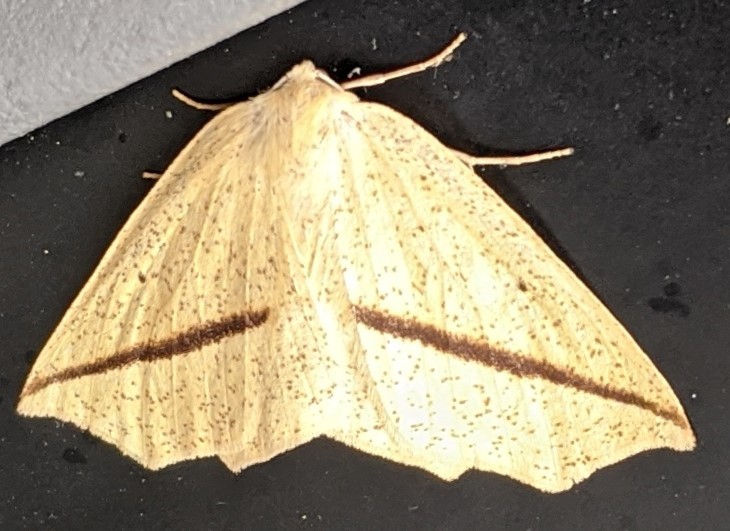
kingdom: Animalia
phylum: Arthropoda
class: Insecta
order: Lepidoptera
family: Geometridae
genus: Tetracis
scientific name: Tetracis crocallata
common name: Yellow slant-line
